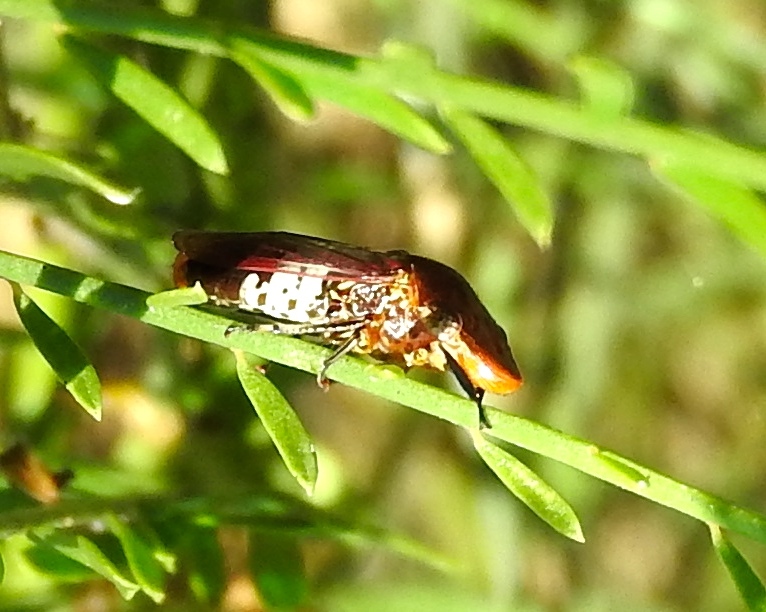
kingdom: Animalia
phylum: Arthropoda
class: Insecta
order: Hemiptera
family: Cicadellidae
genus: Homalodisca
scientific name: Homalodisca ichthyocephala
